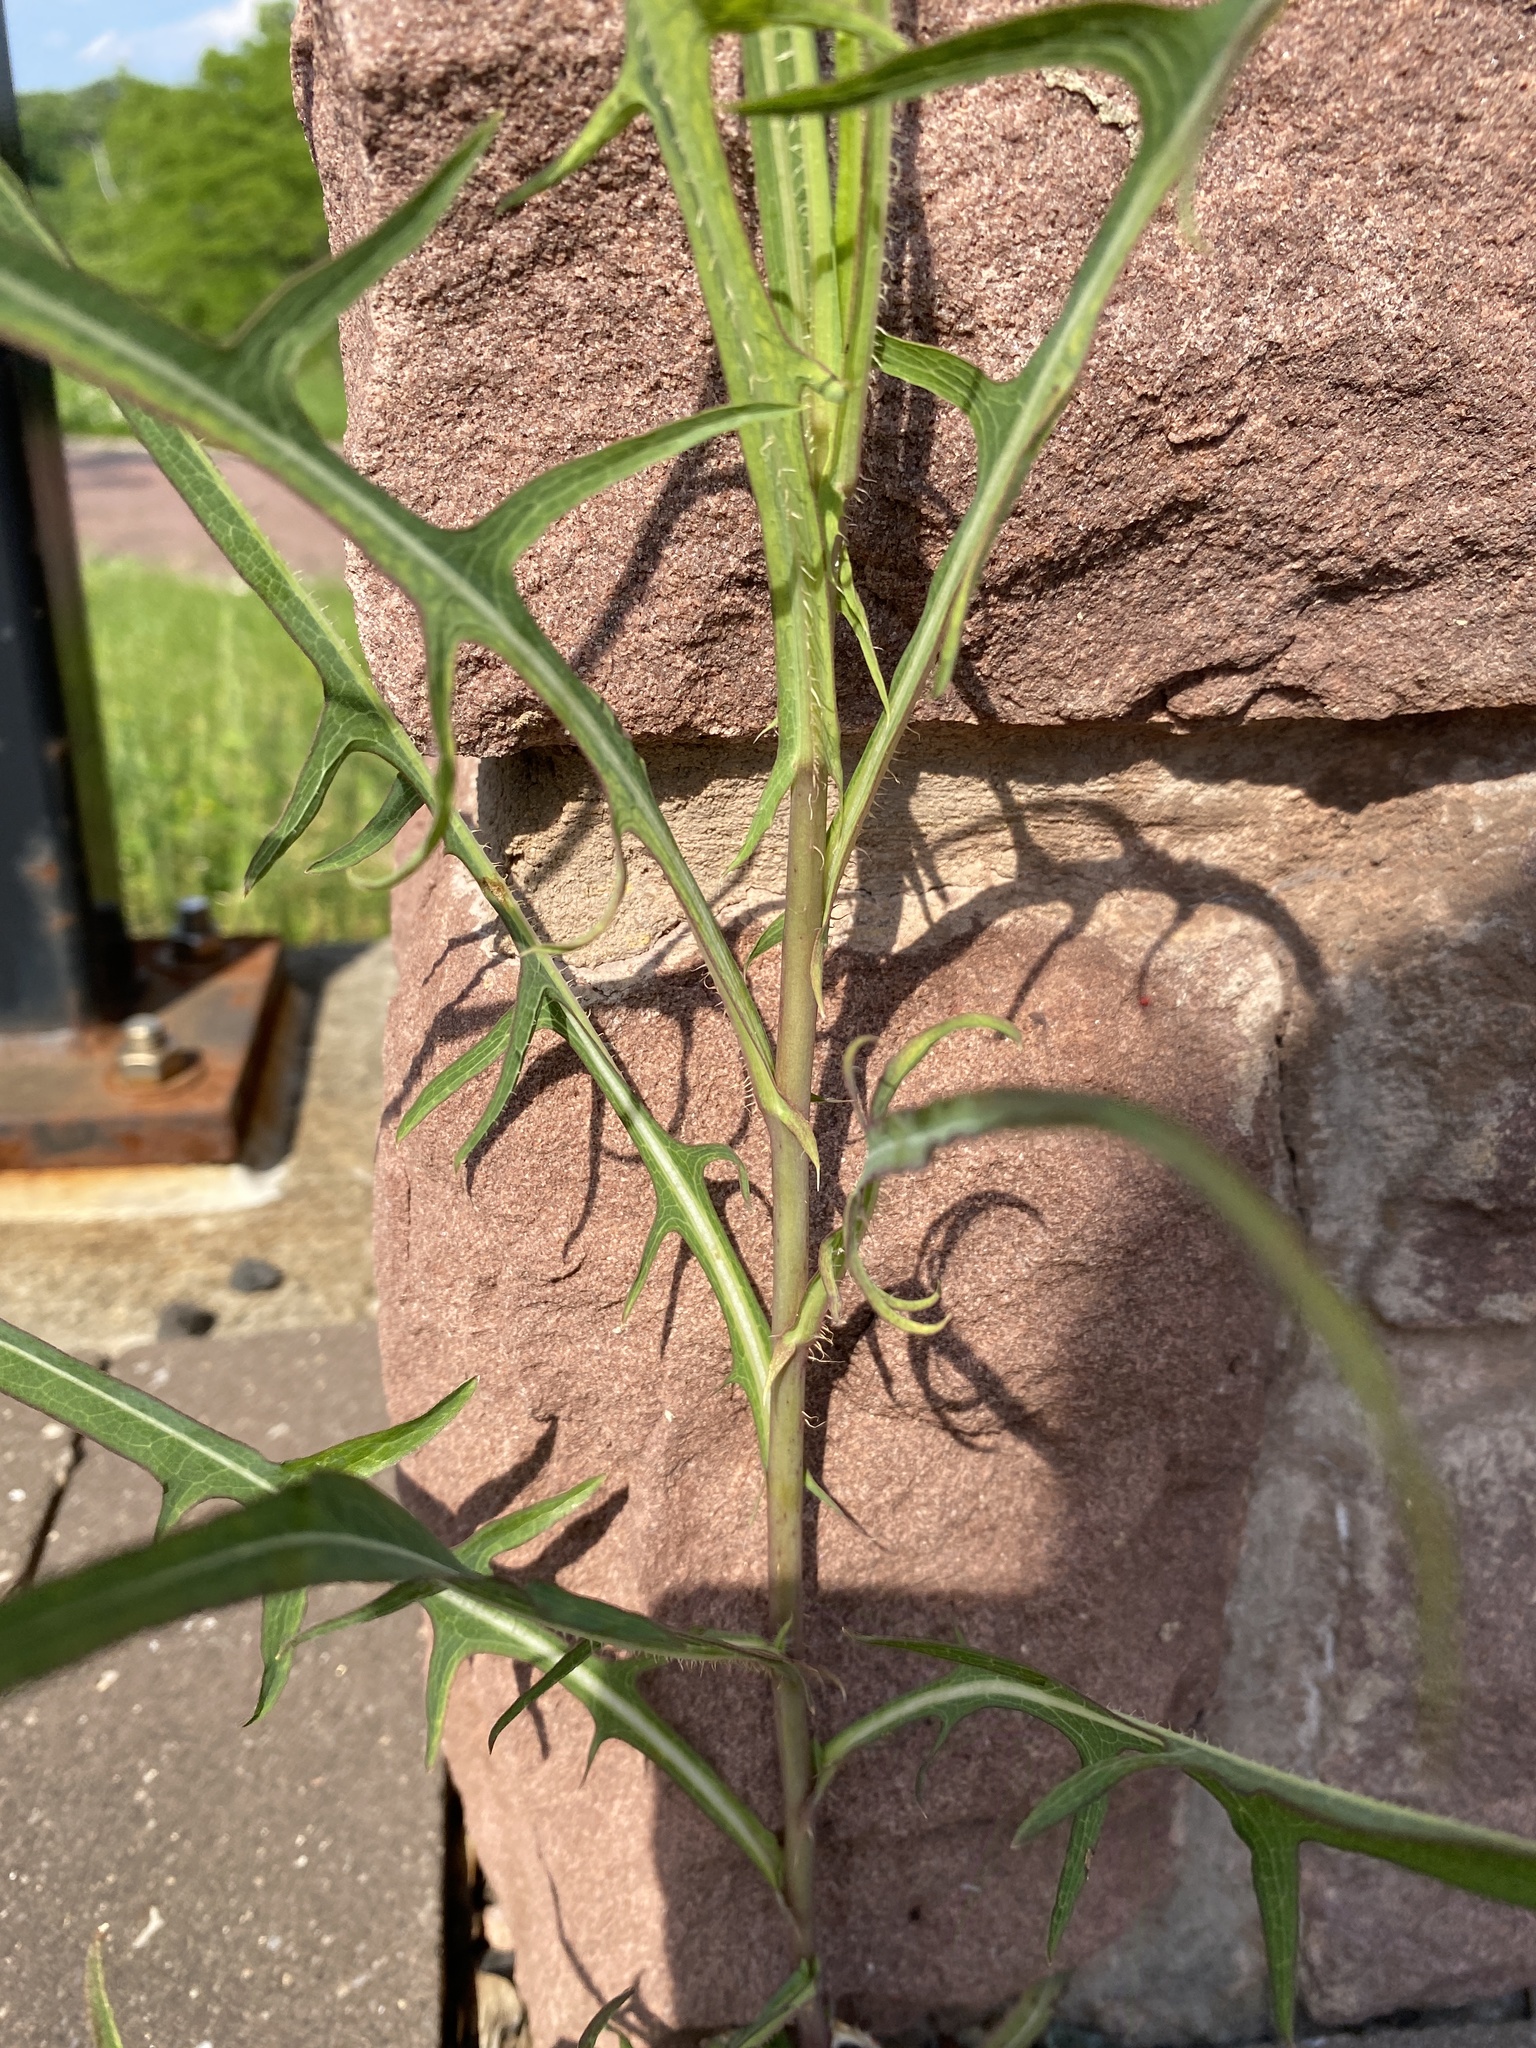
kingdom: Plantae
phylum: Tracheophyta
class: Magnoliopsida
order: Asterales
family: Asteraceae
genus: Lactuca
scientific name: Lactuca saligna
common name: Wild lettuce
